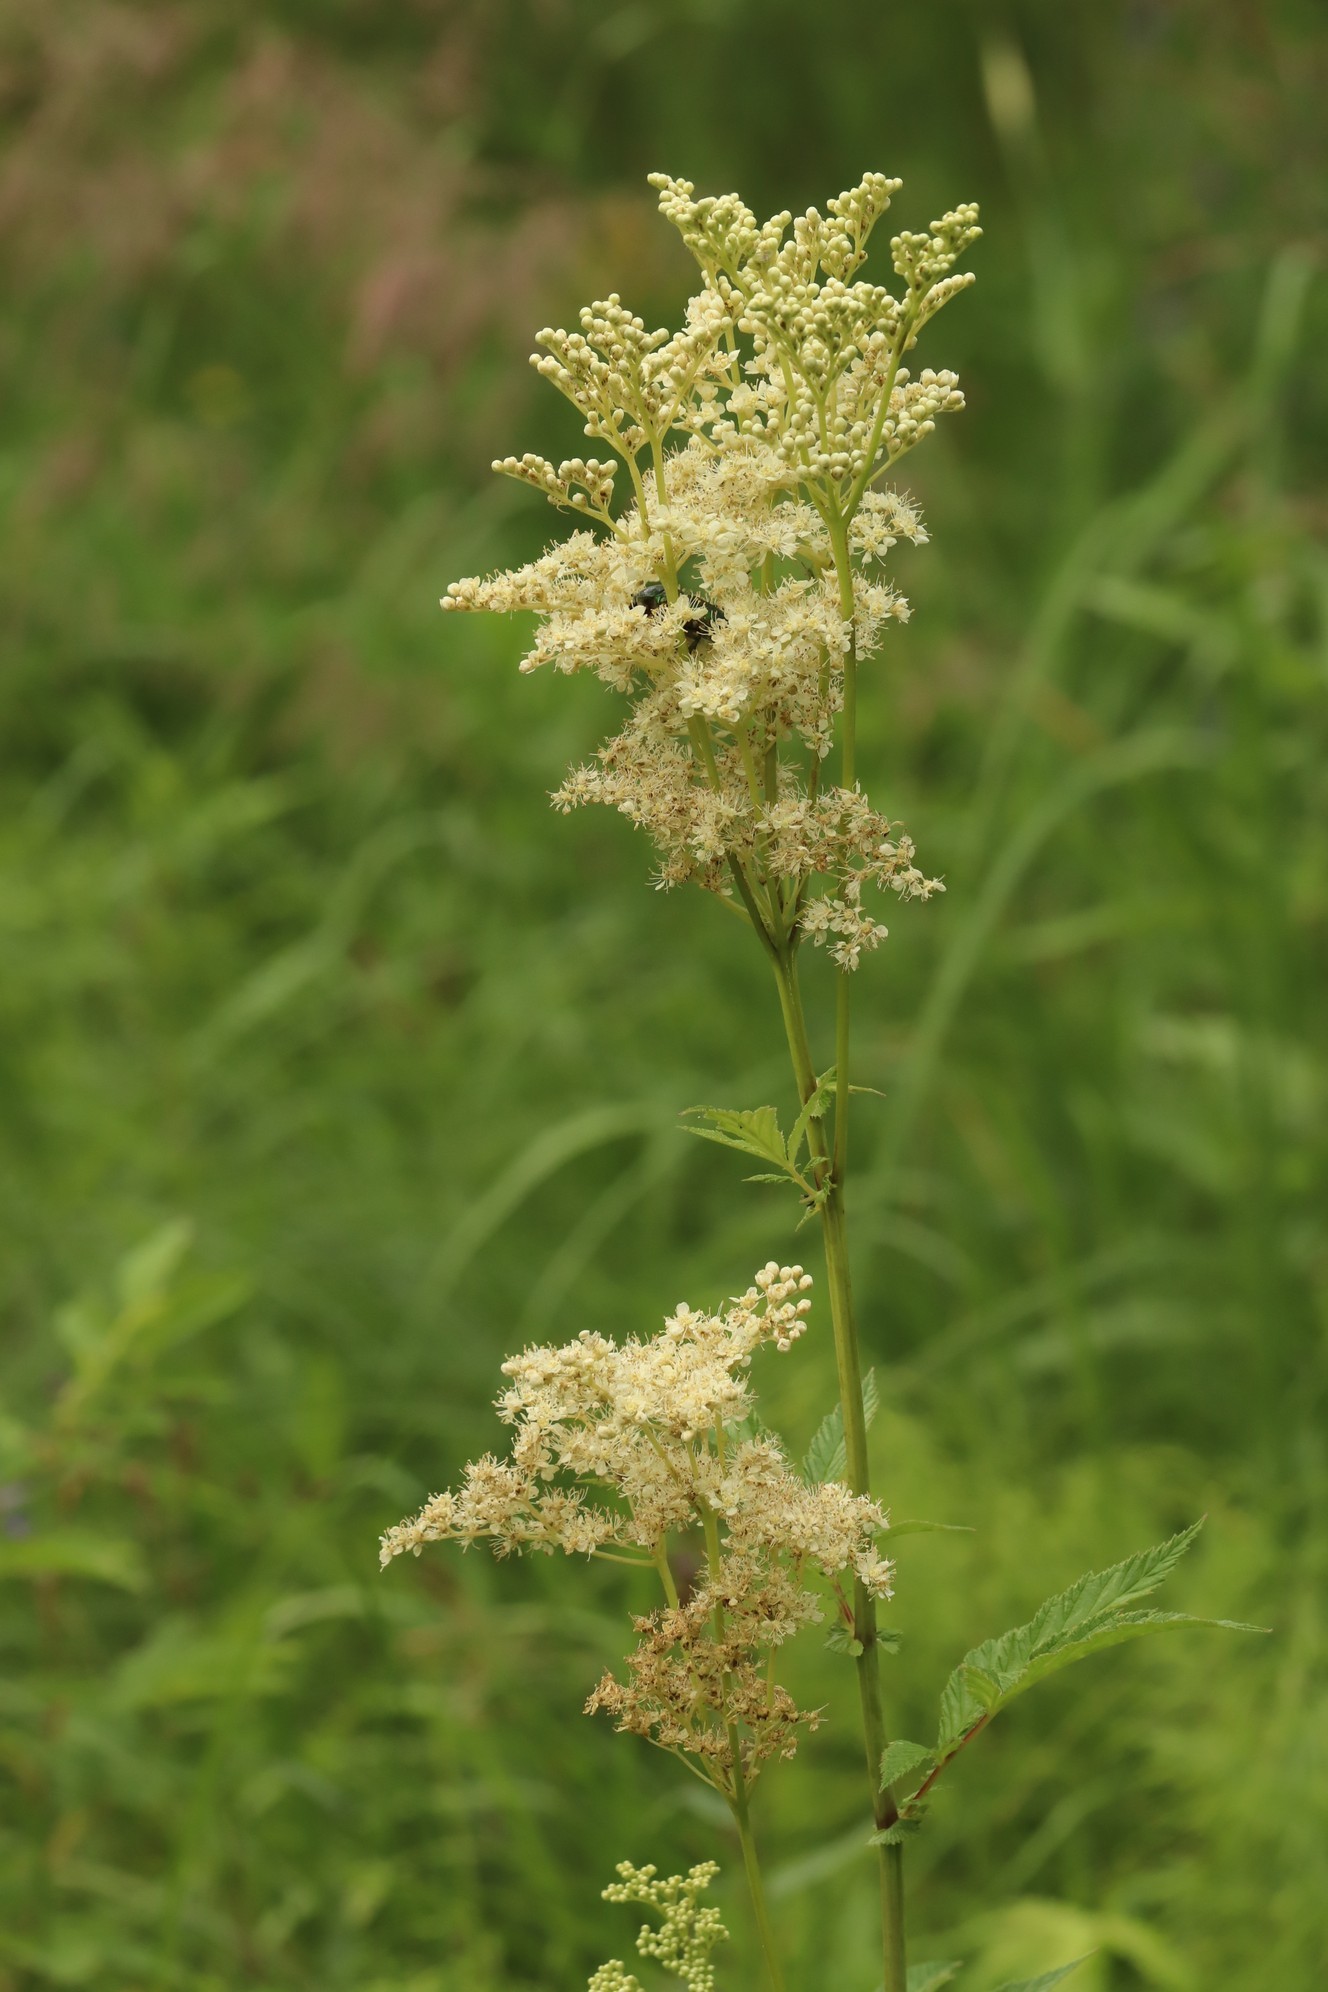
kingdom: Plantae
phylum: Tracheophyta
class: Magnoliopsida
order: Rosales
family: Rosaceae
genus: Filipendula
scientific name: Filipendula ulmaria
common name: Meadowsweet
